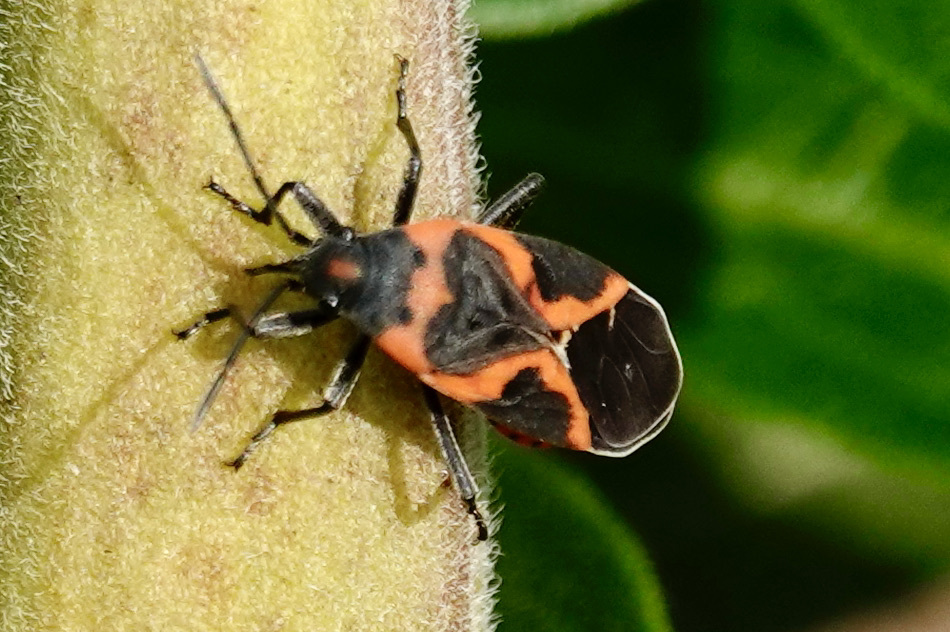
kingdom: Animalia
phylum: Arthropoda
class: Insecta
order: Hemiptera
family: Lygaeidae
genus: Lygaeus
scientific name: Lygaeus kalmii
